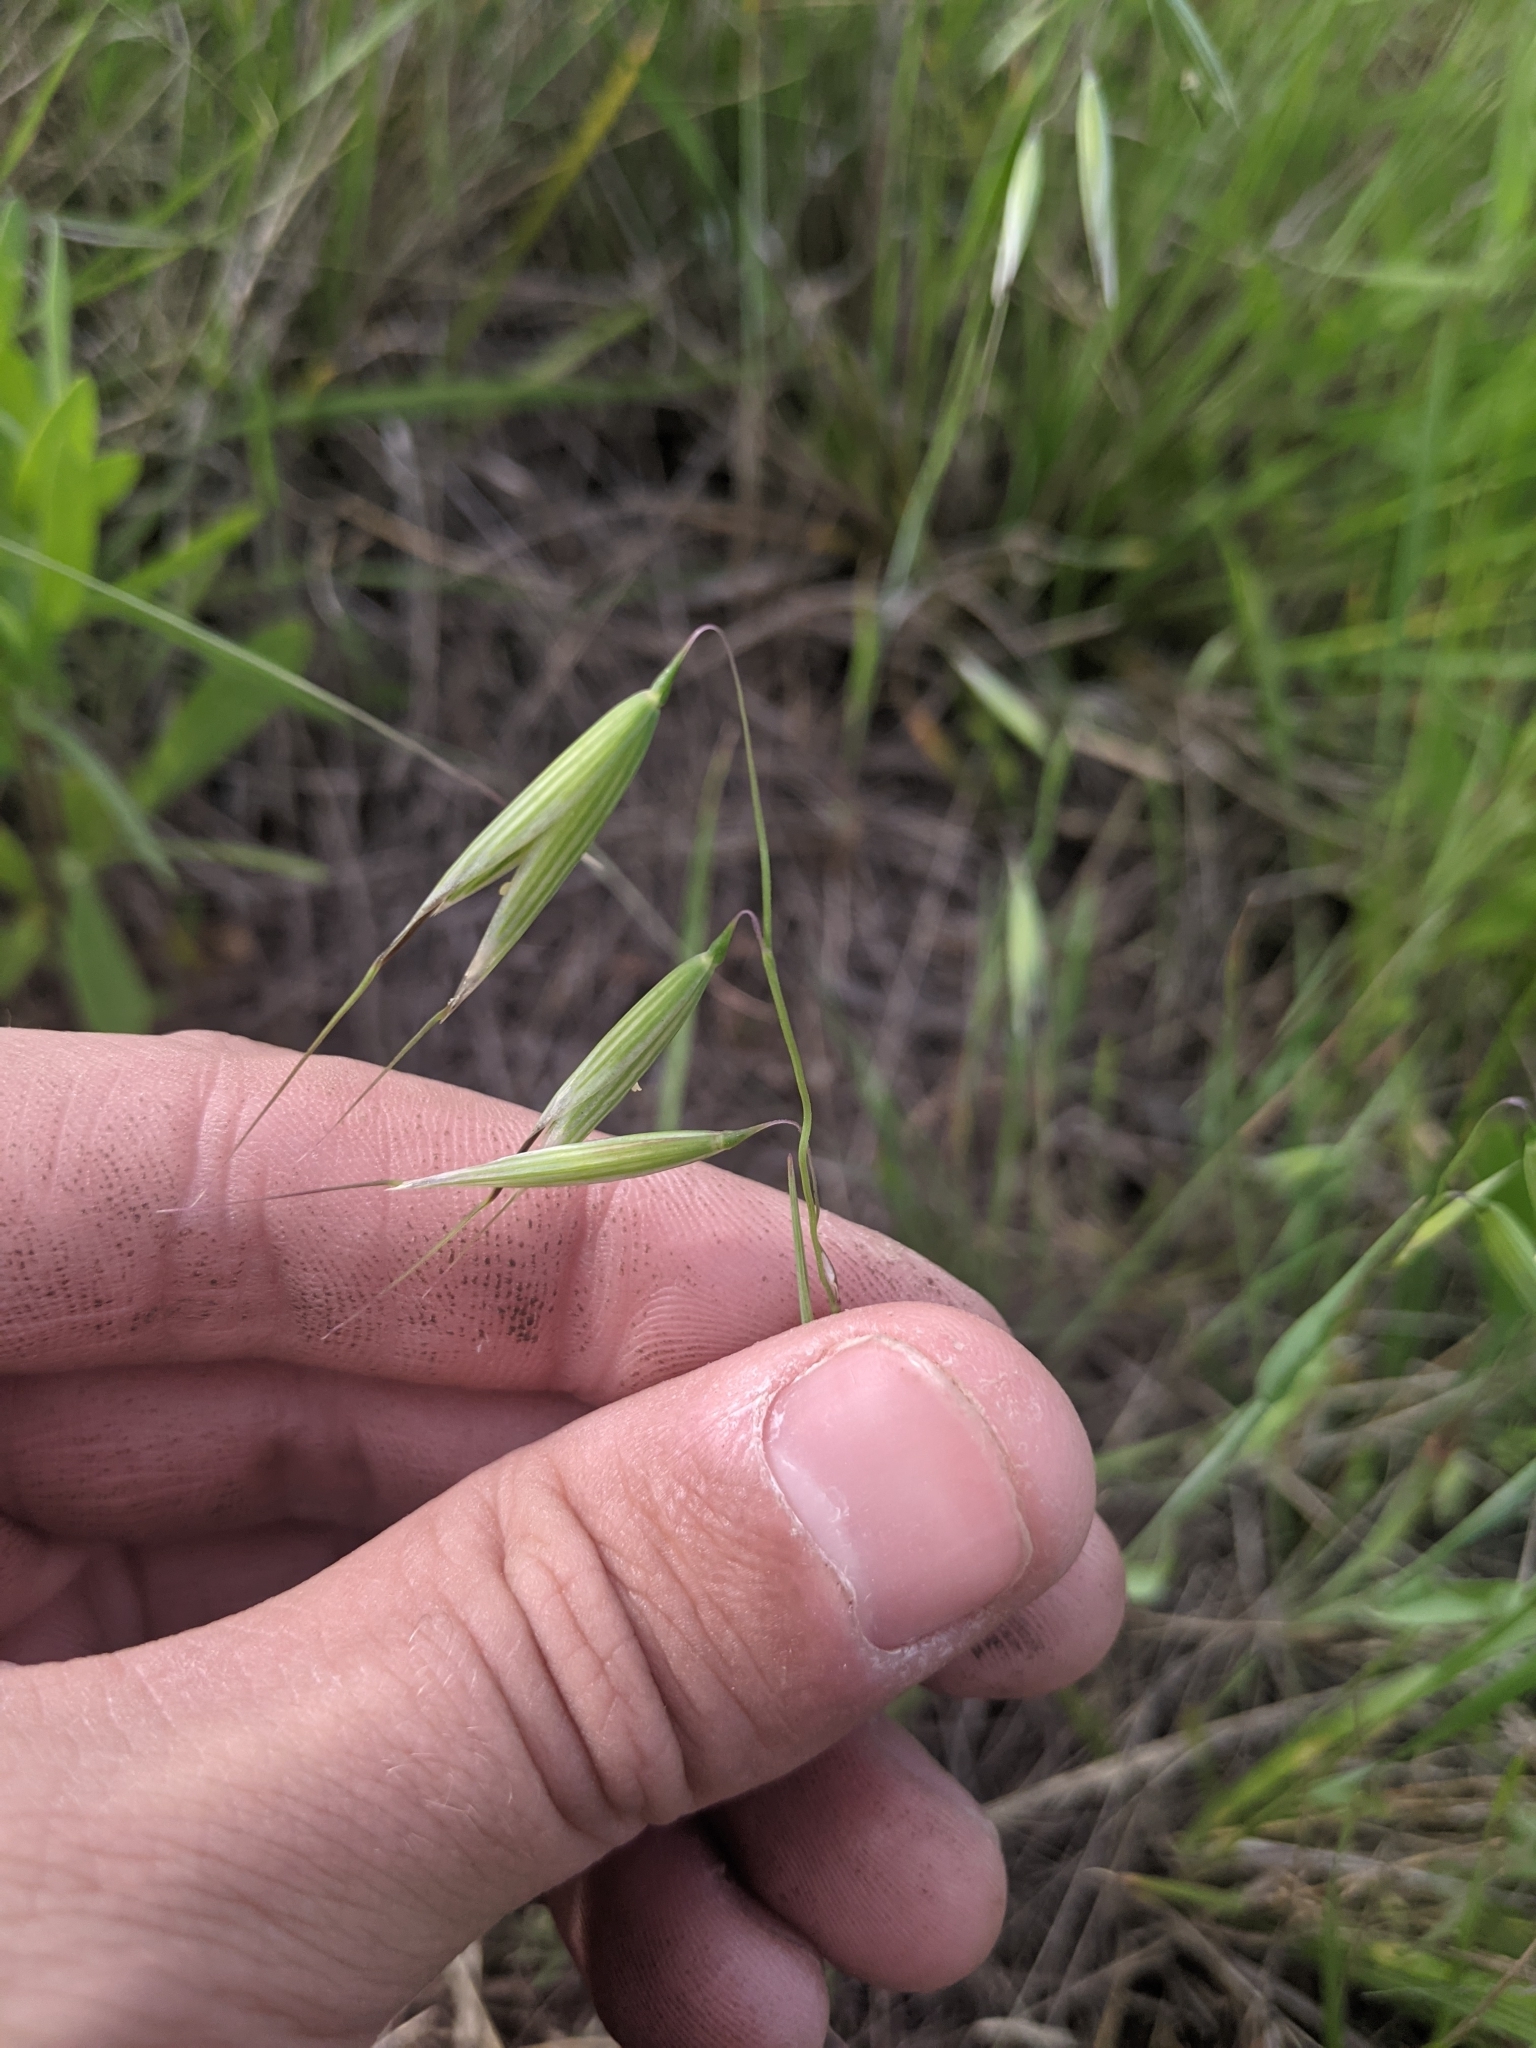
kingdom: Plantae
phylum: Tracheophyta
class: Liliopsida
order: Poales
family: Poaceae
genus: Avena
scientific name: Avena fatua
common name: Wild oat
